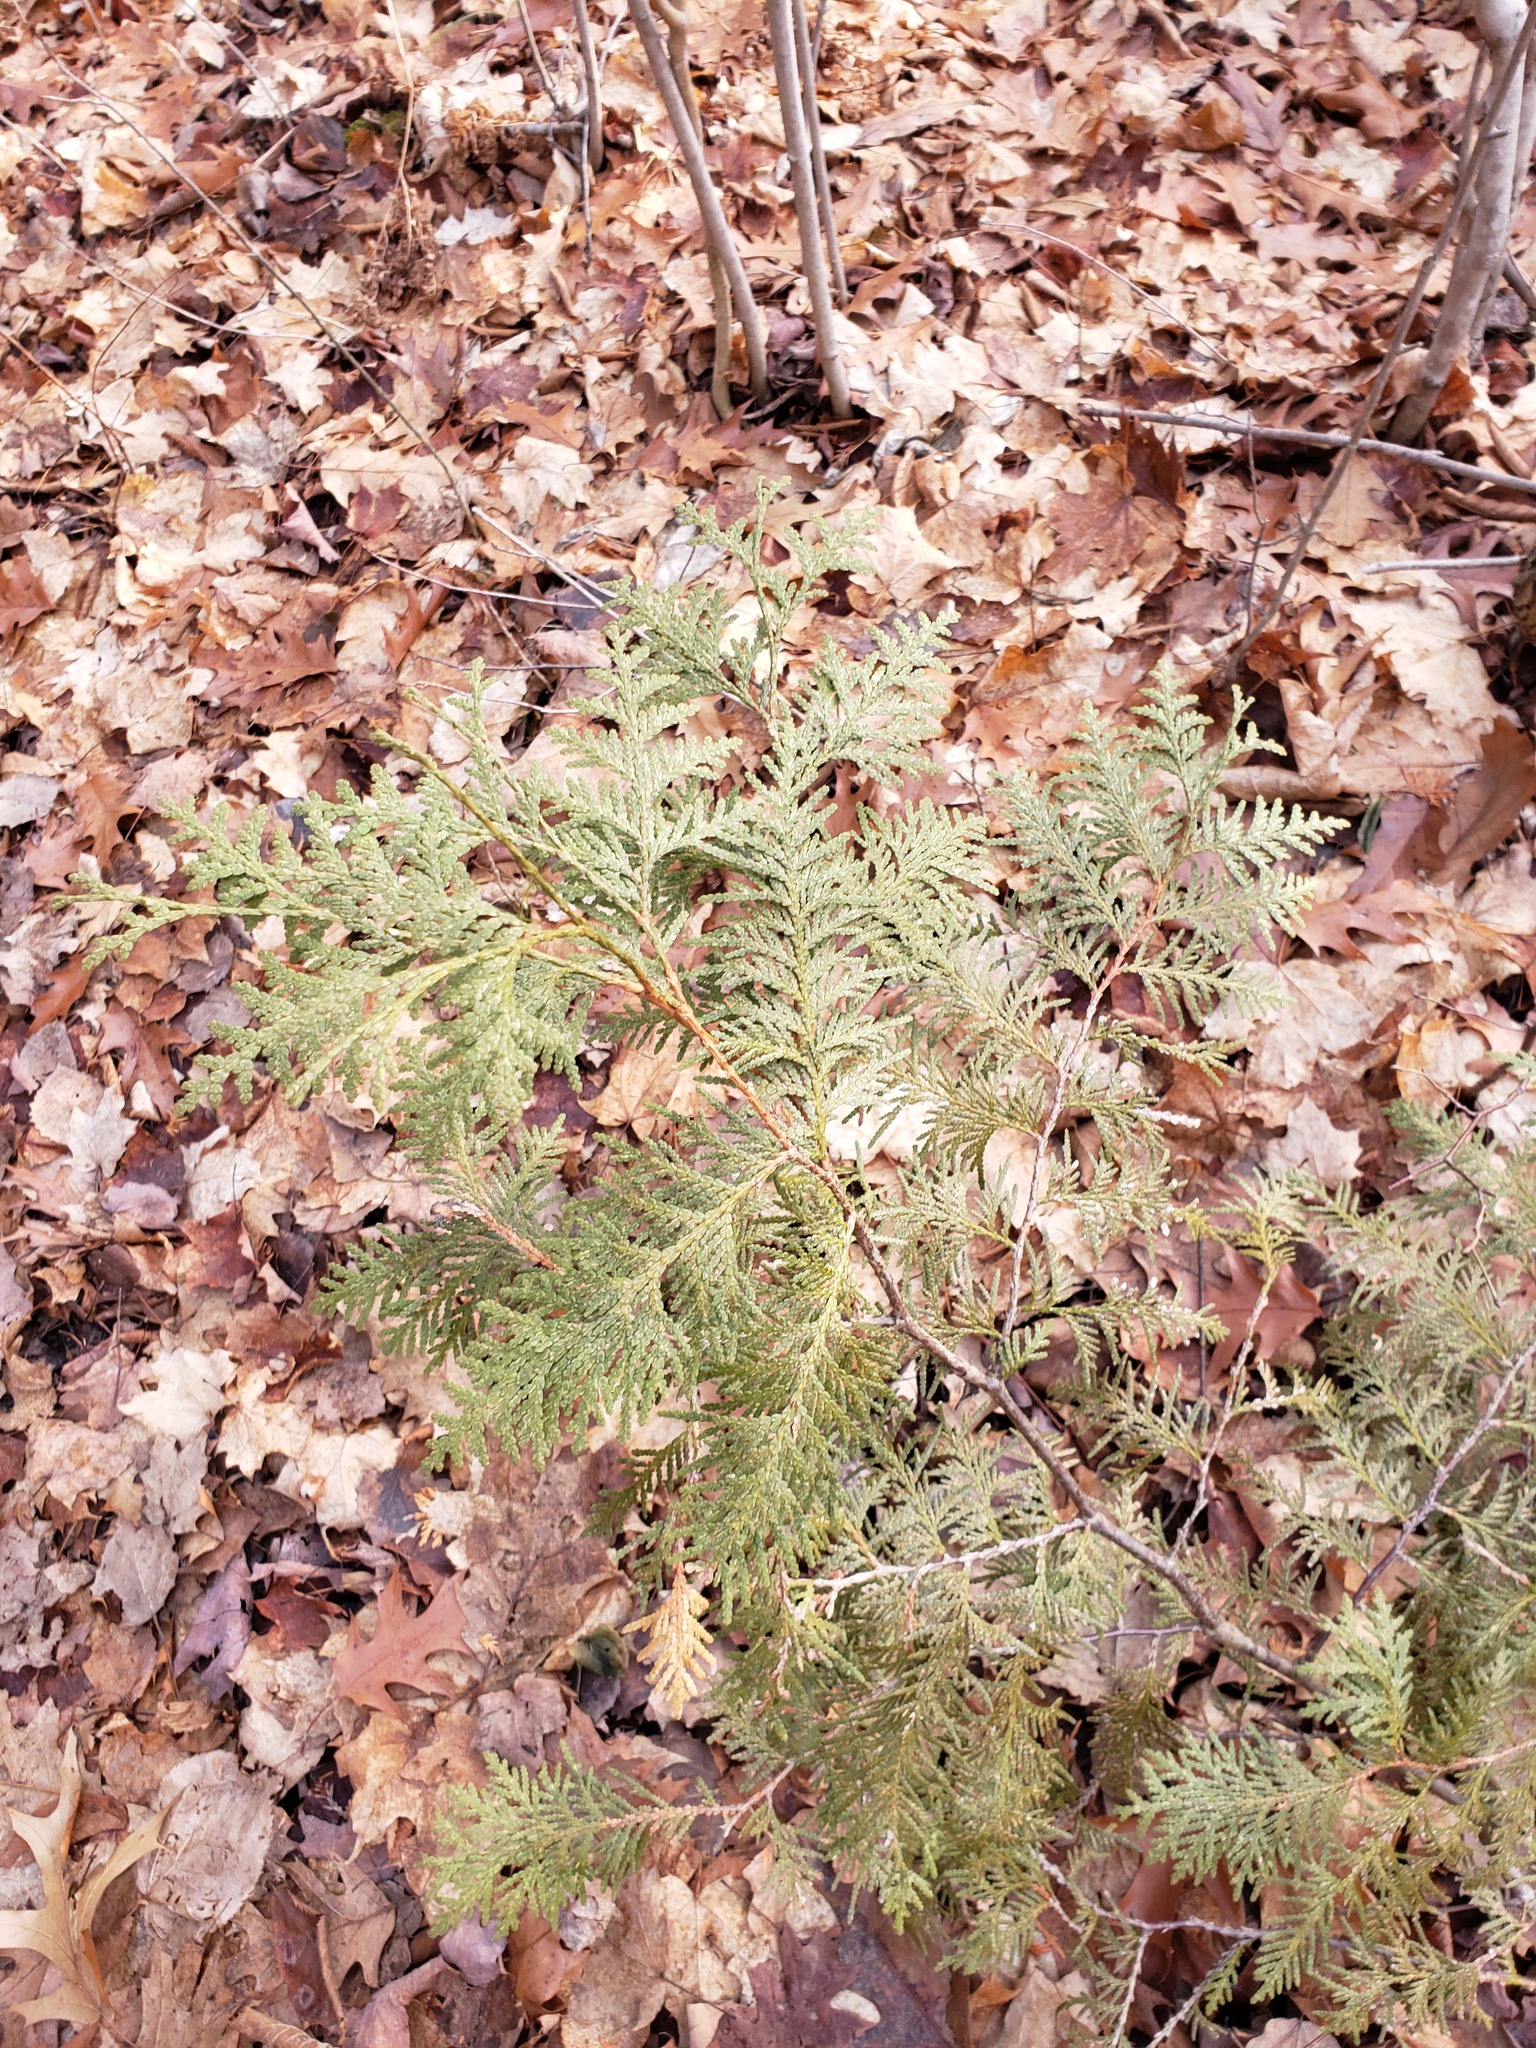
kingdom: Plantae
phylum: Tracheophyta
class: Pinopsida
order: Pinales
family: Cupressaceae
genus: Thuja
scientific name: Thuja occidentalis
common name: Northern white-cedar
